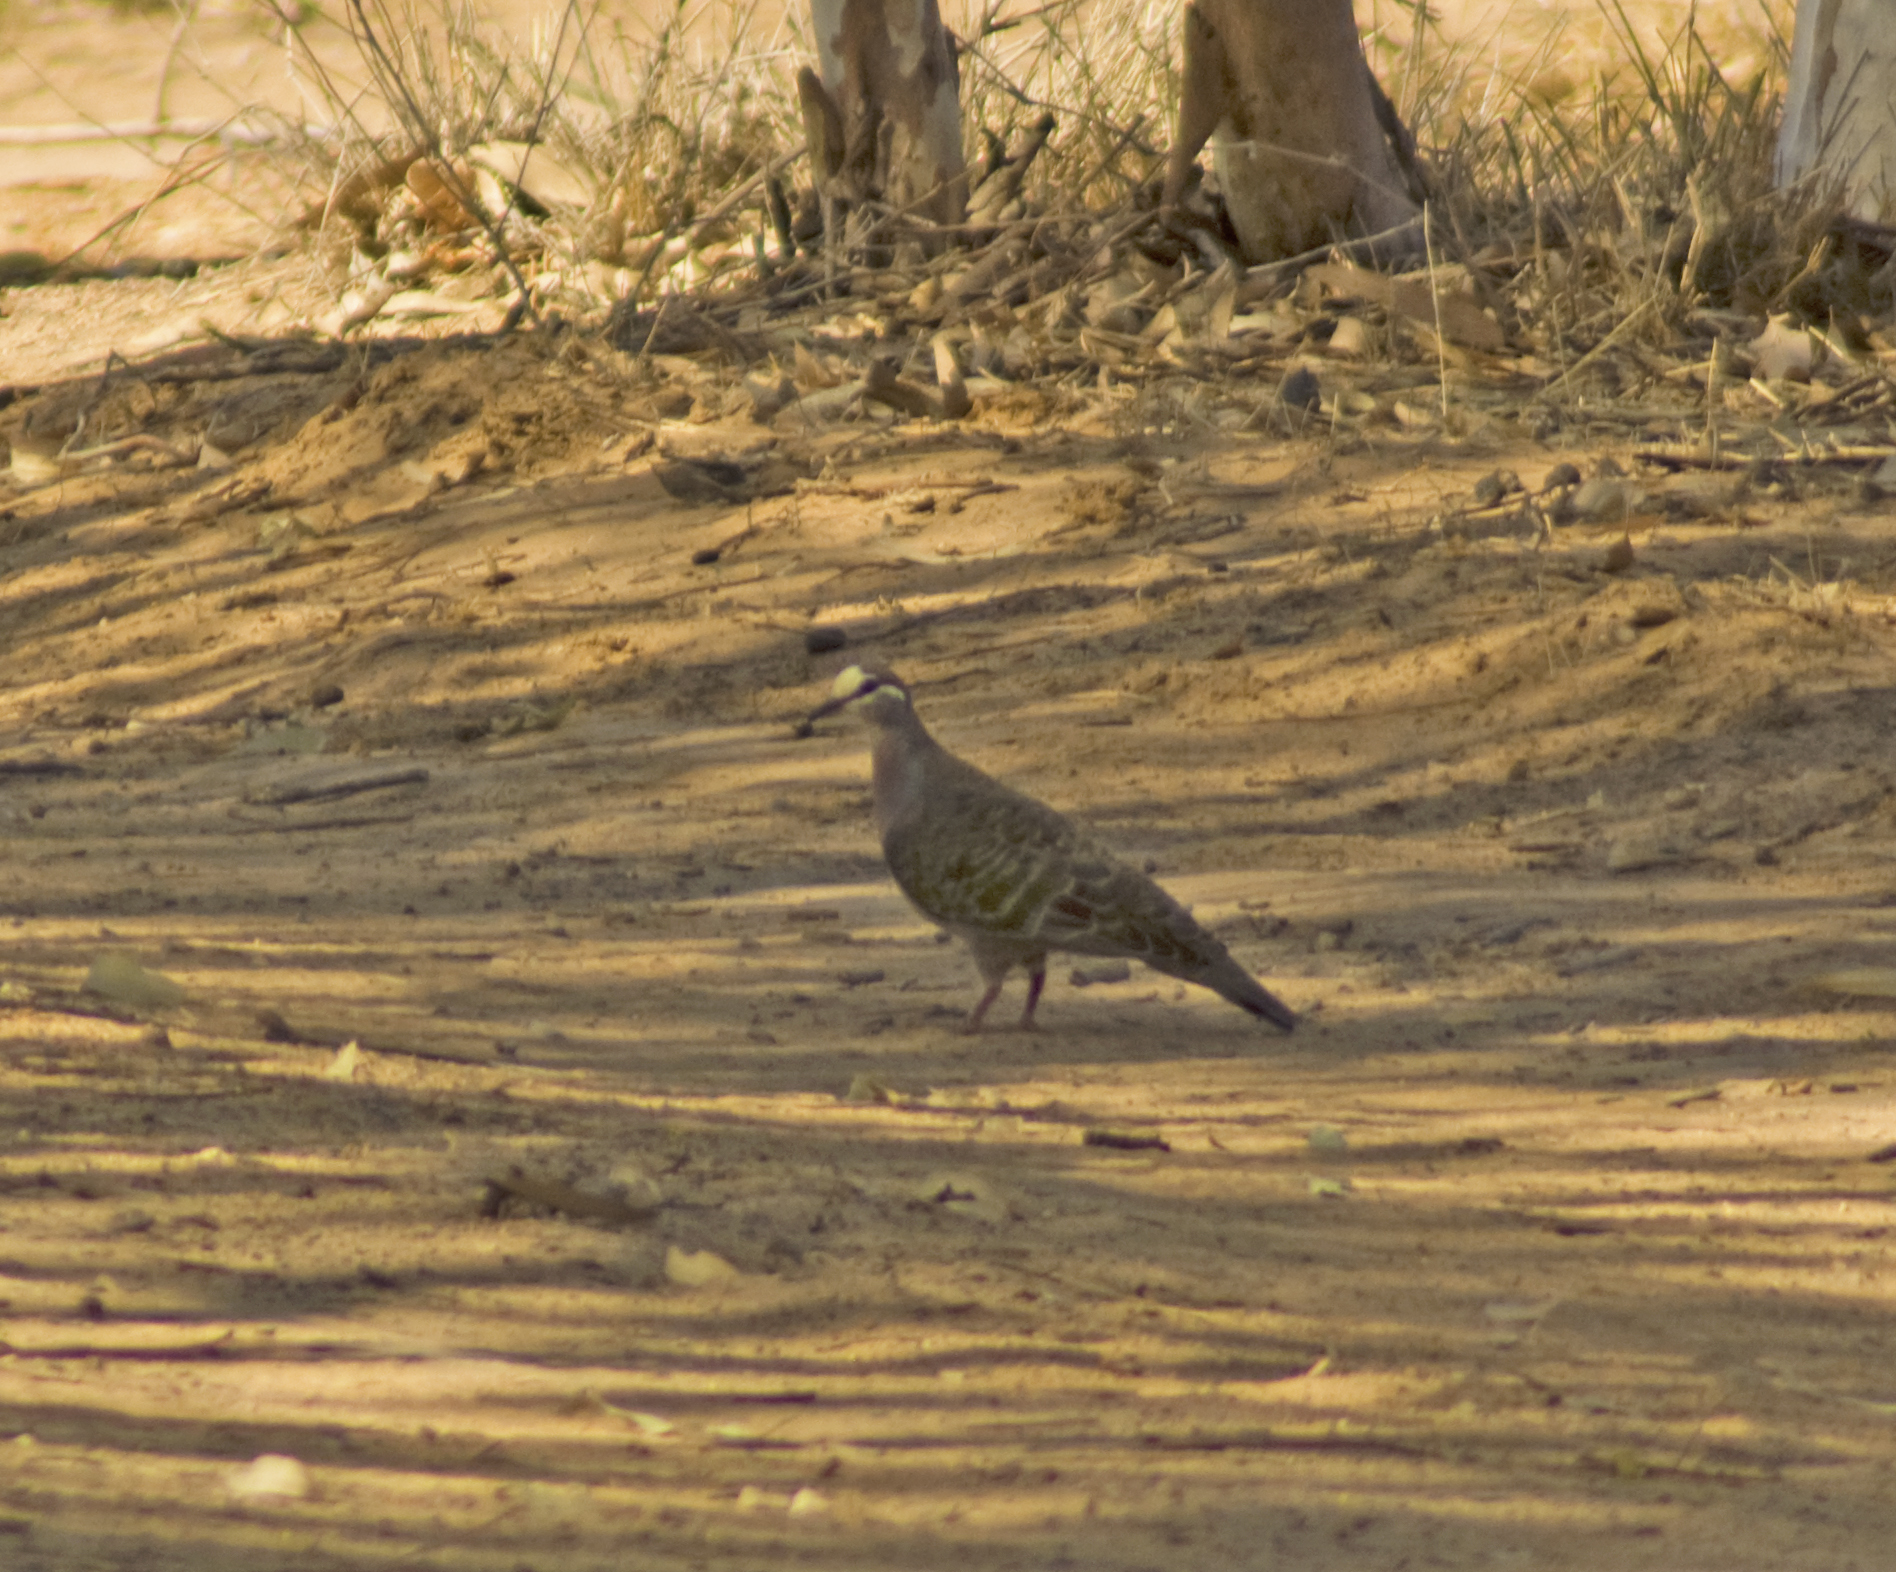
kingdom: Animalia
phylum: Chordata
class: Aves
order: Columbiformes
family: Columbidae
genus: Phaps
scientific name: Phaps chalcoptera
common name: Common bronzewing
